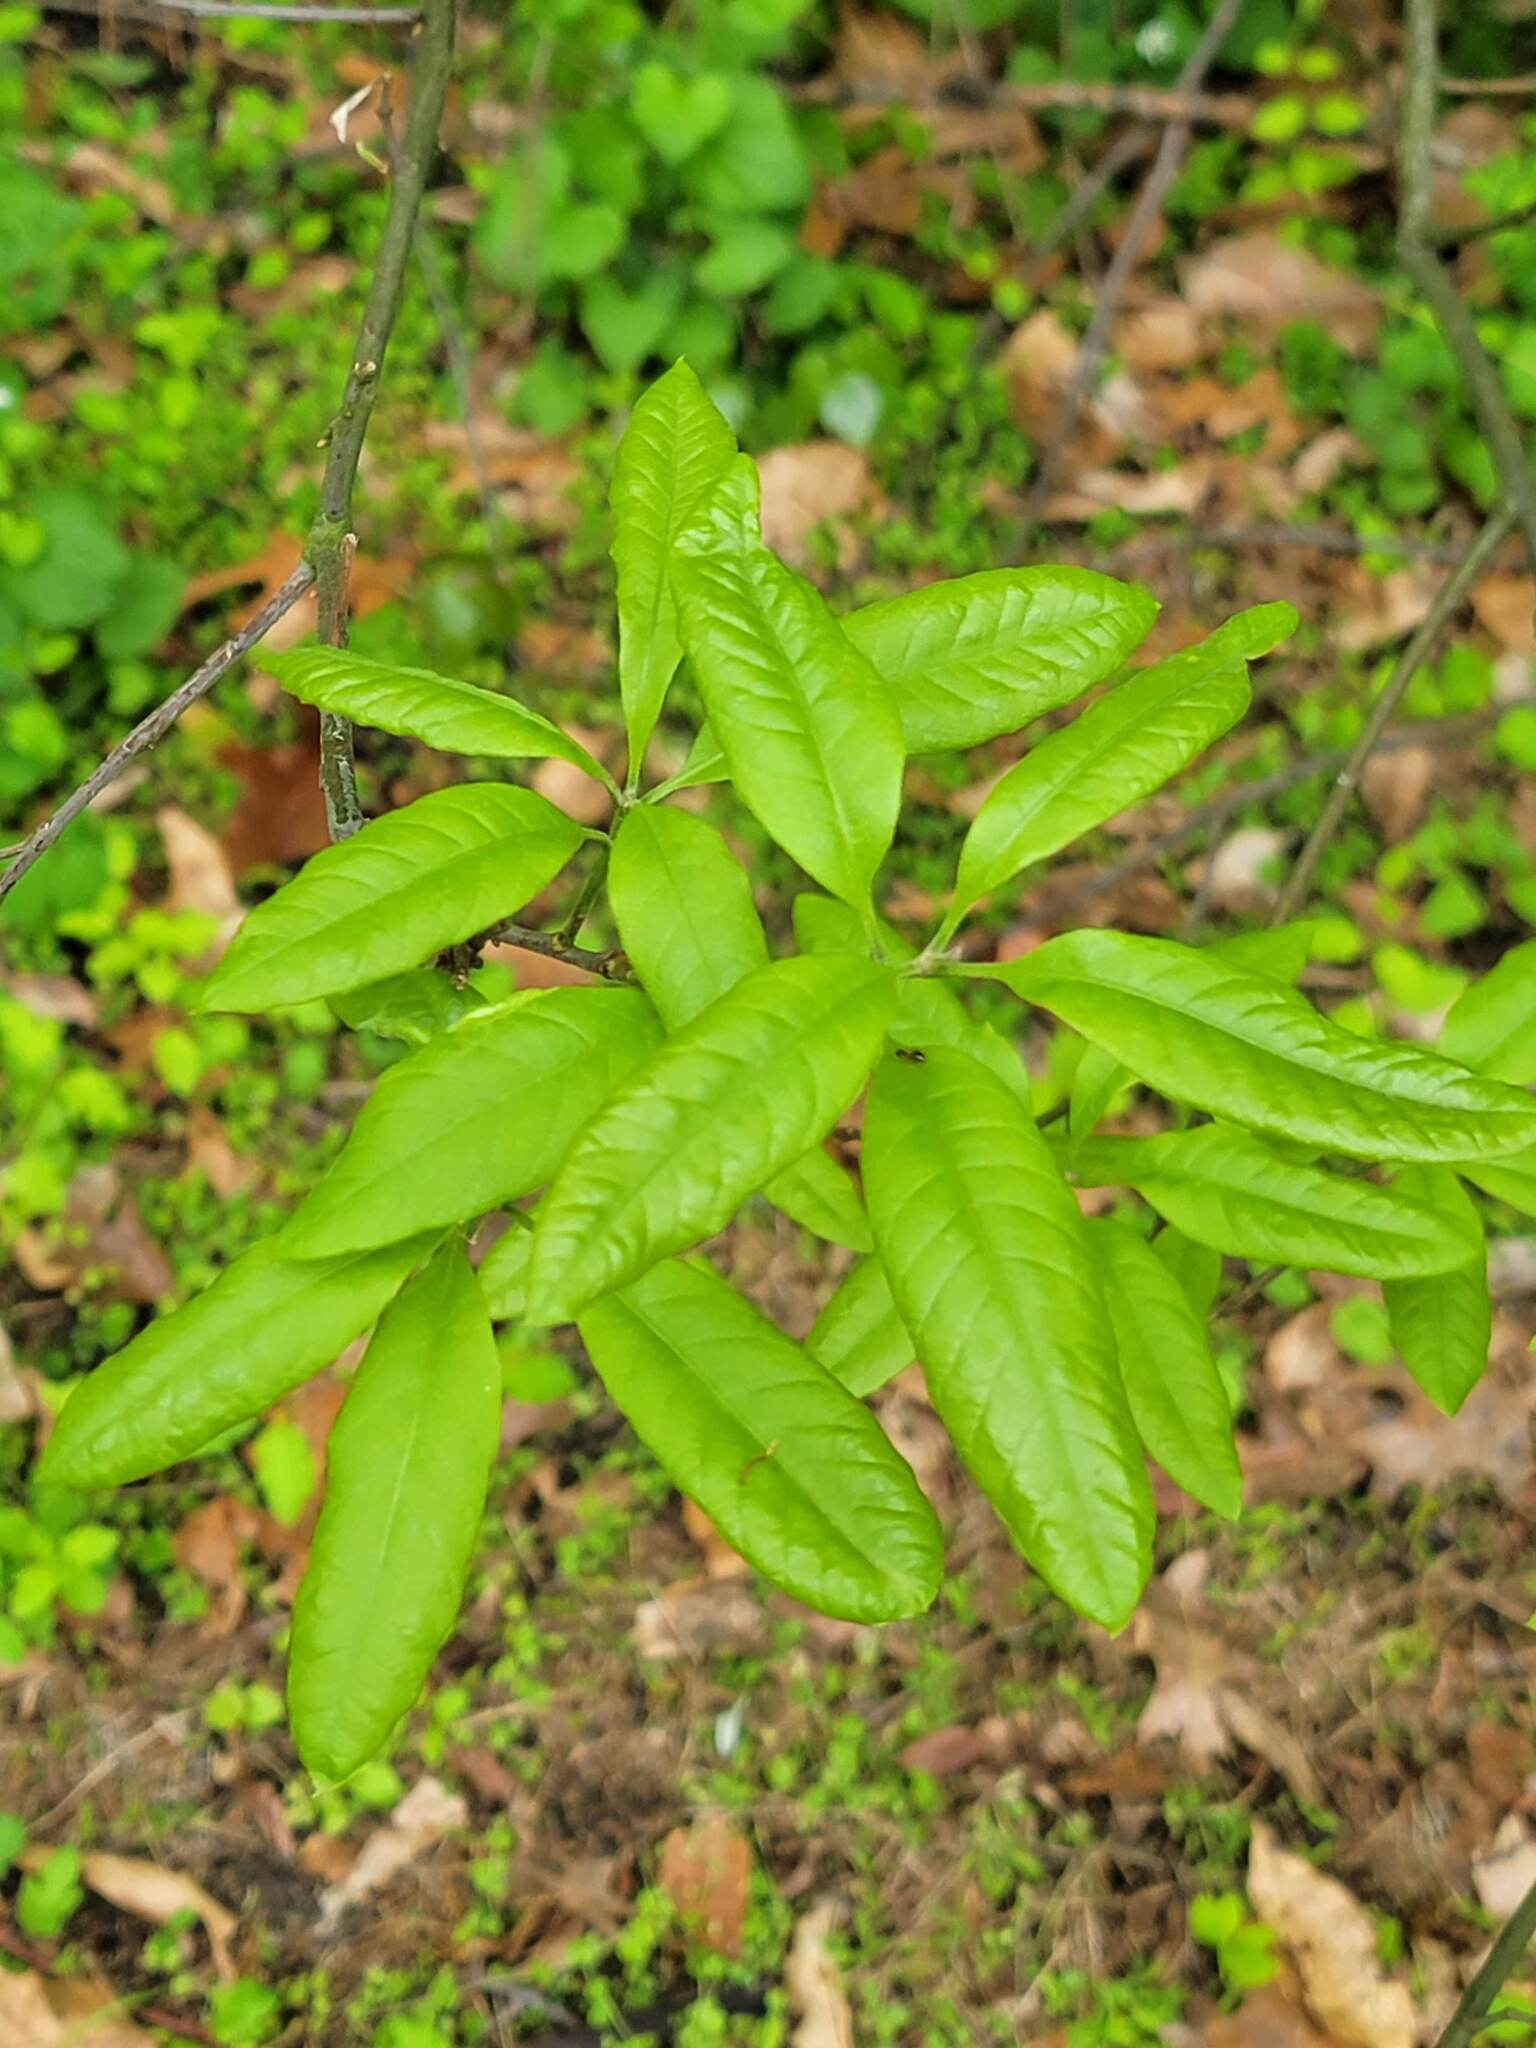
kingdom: Plantae
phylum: Tracheophyta
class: Magnoliopsida
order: Fagales
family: Fagaceae
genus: Quercus
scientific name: Quercus imbricaria
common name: Shingle oak
